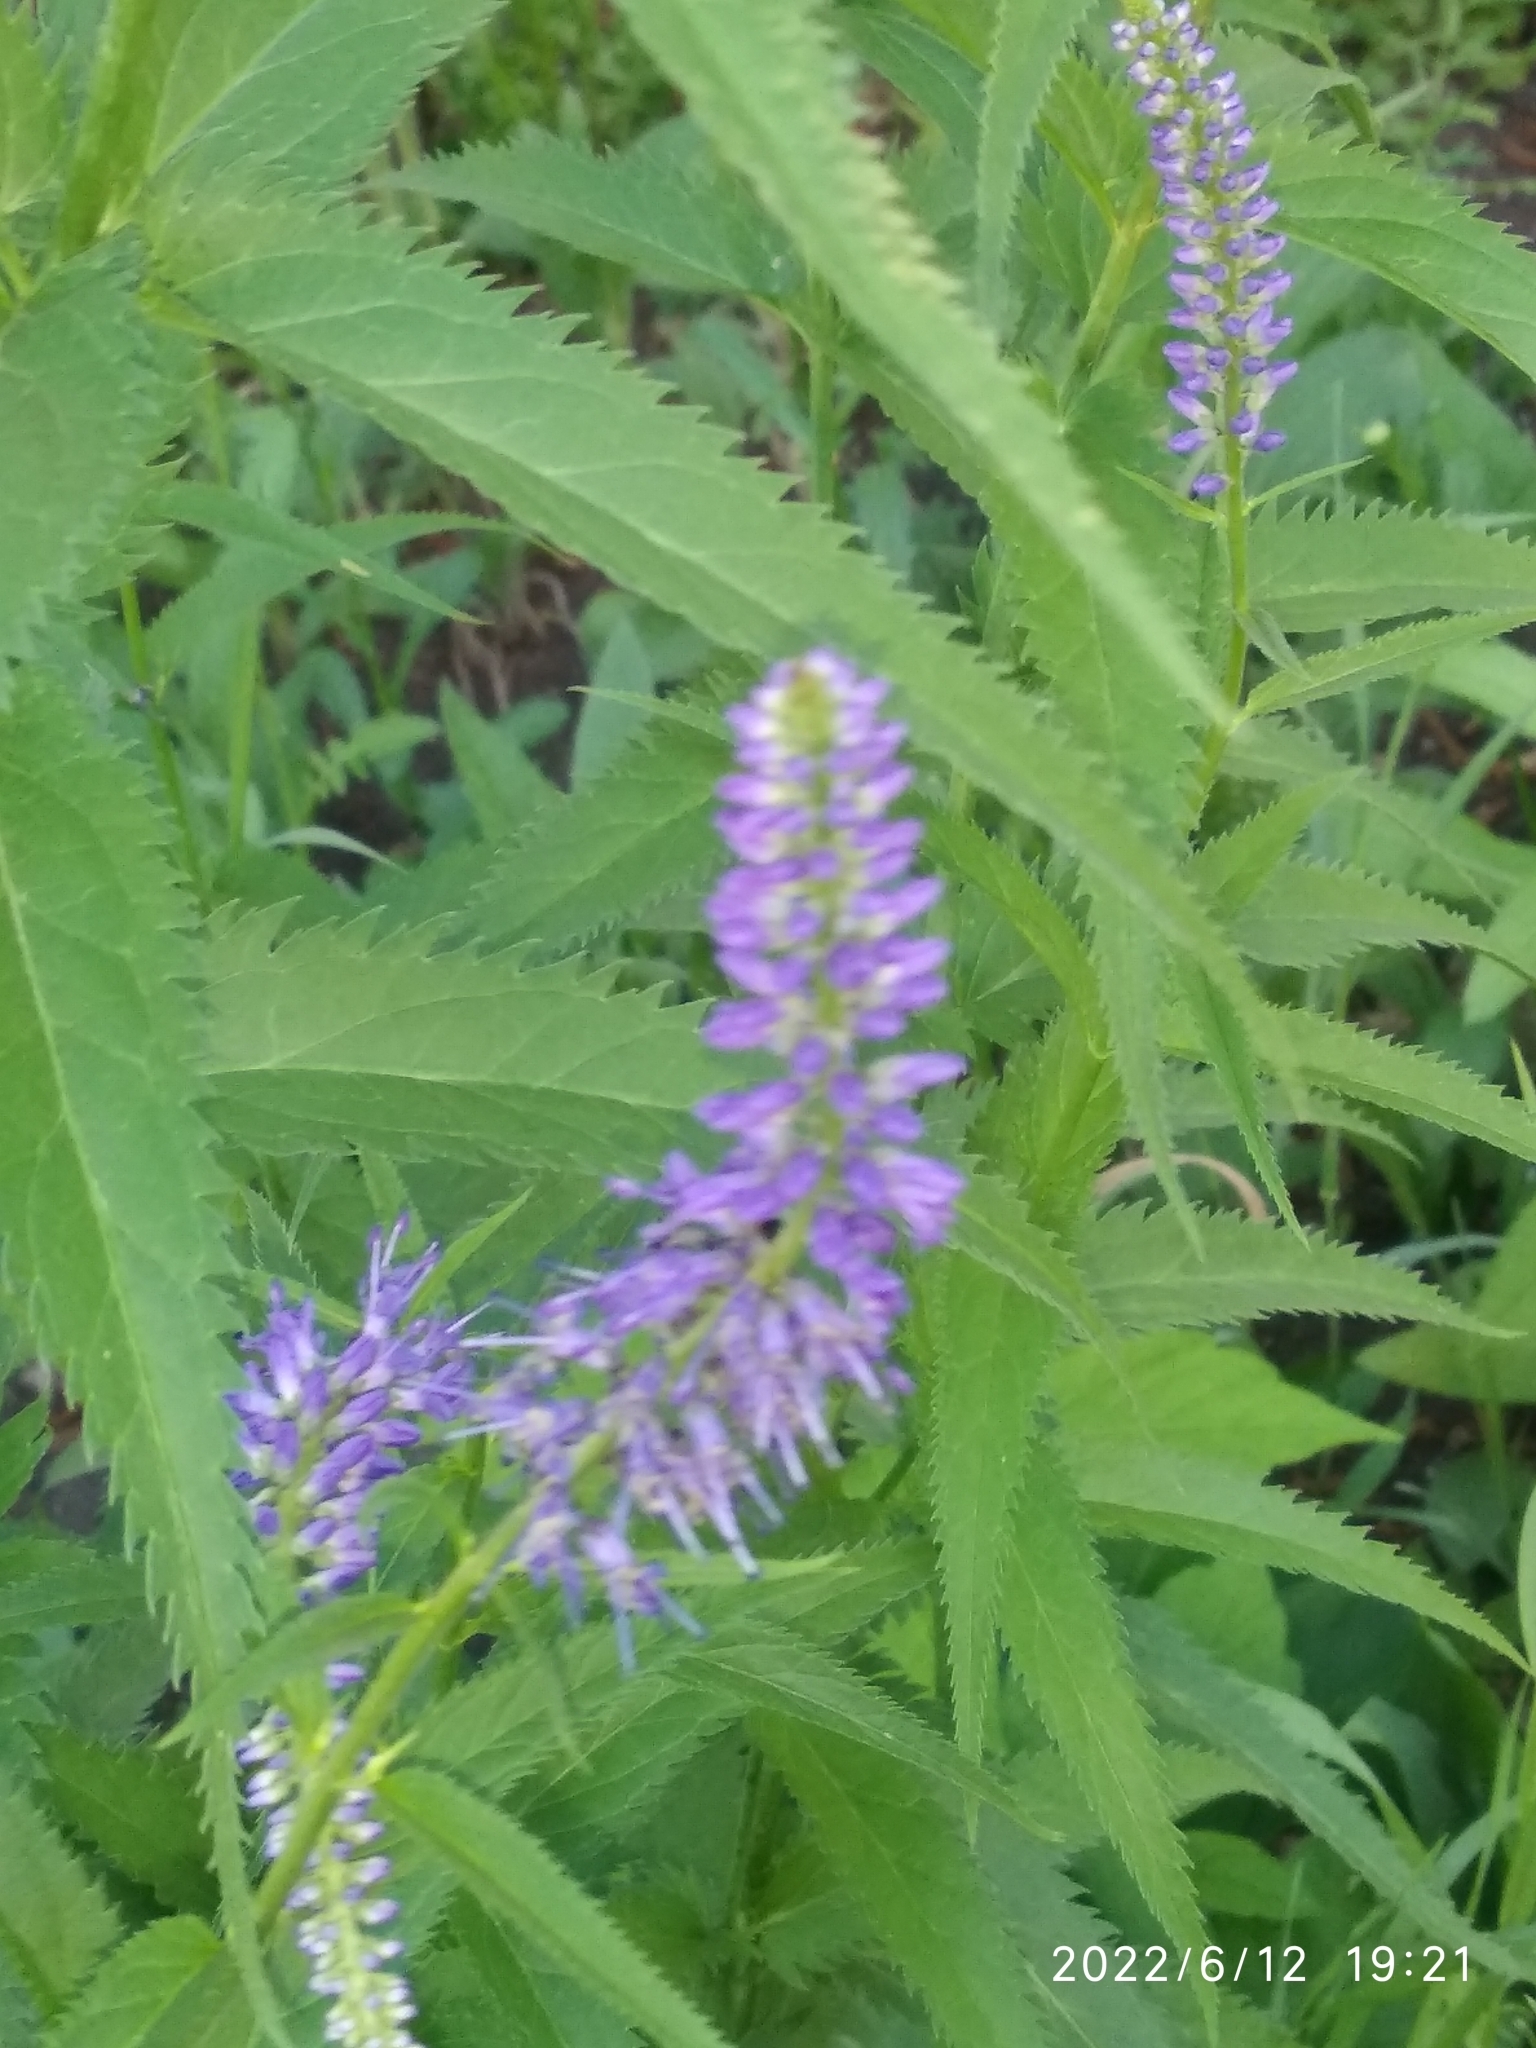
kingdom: Plantae
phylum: Tracheophyta
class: Magnoliopsida
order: Lamiales
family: Plantaginaceae
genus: Veronica
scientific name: Veronica longifolia
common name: Garden speedwell
